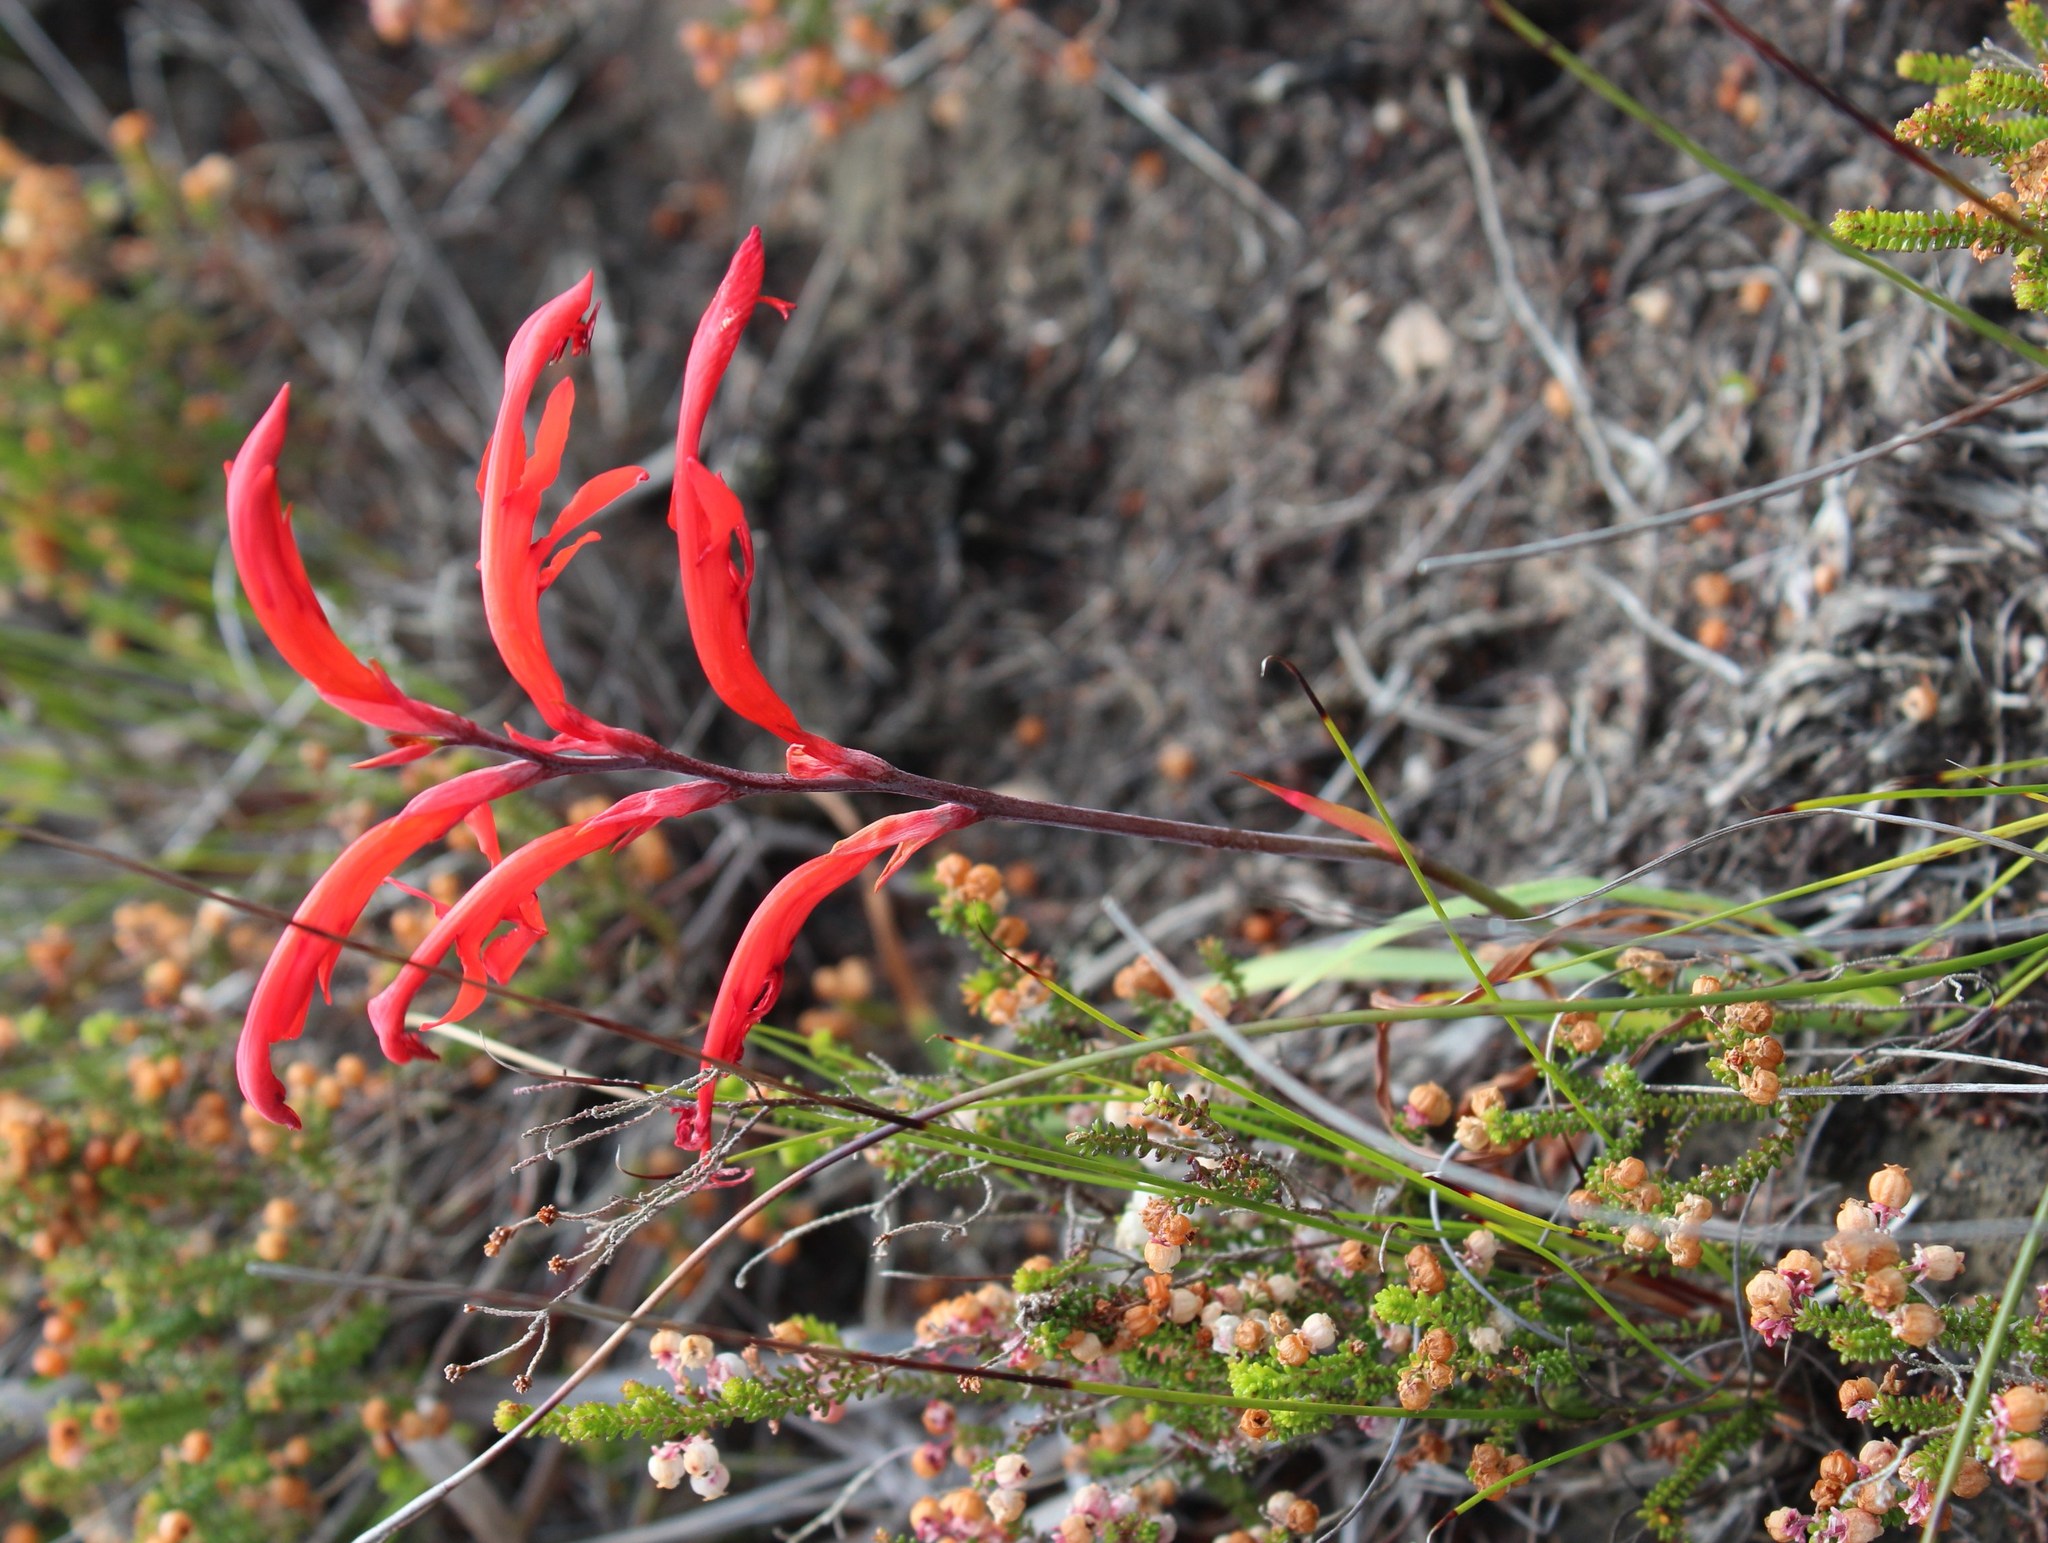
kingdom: Plantae
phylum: Tracheophyta
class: Liliopsida
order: Asparagales
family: Iridaceae
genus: Tritoniopsis
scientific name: Tritoniopsis caffra
